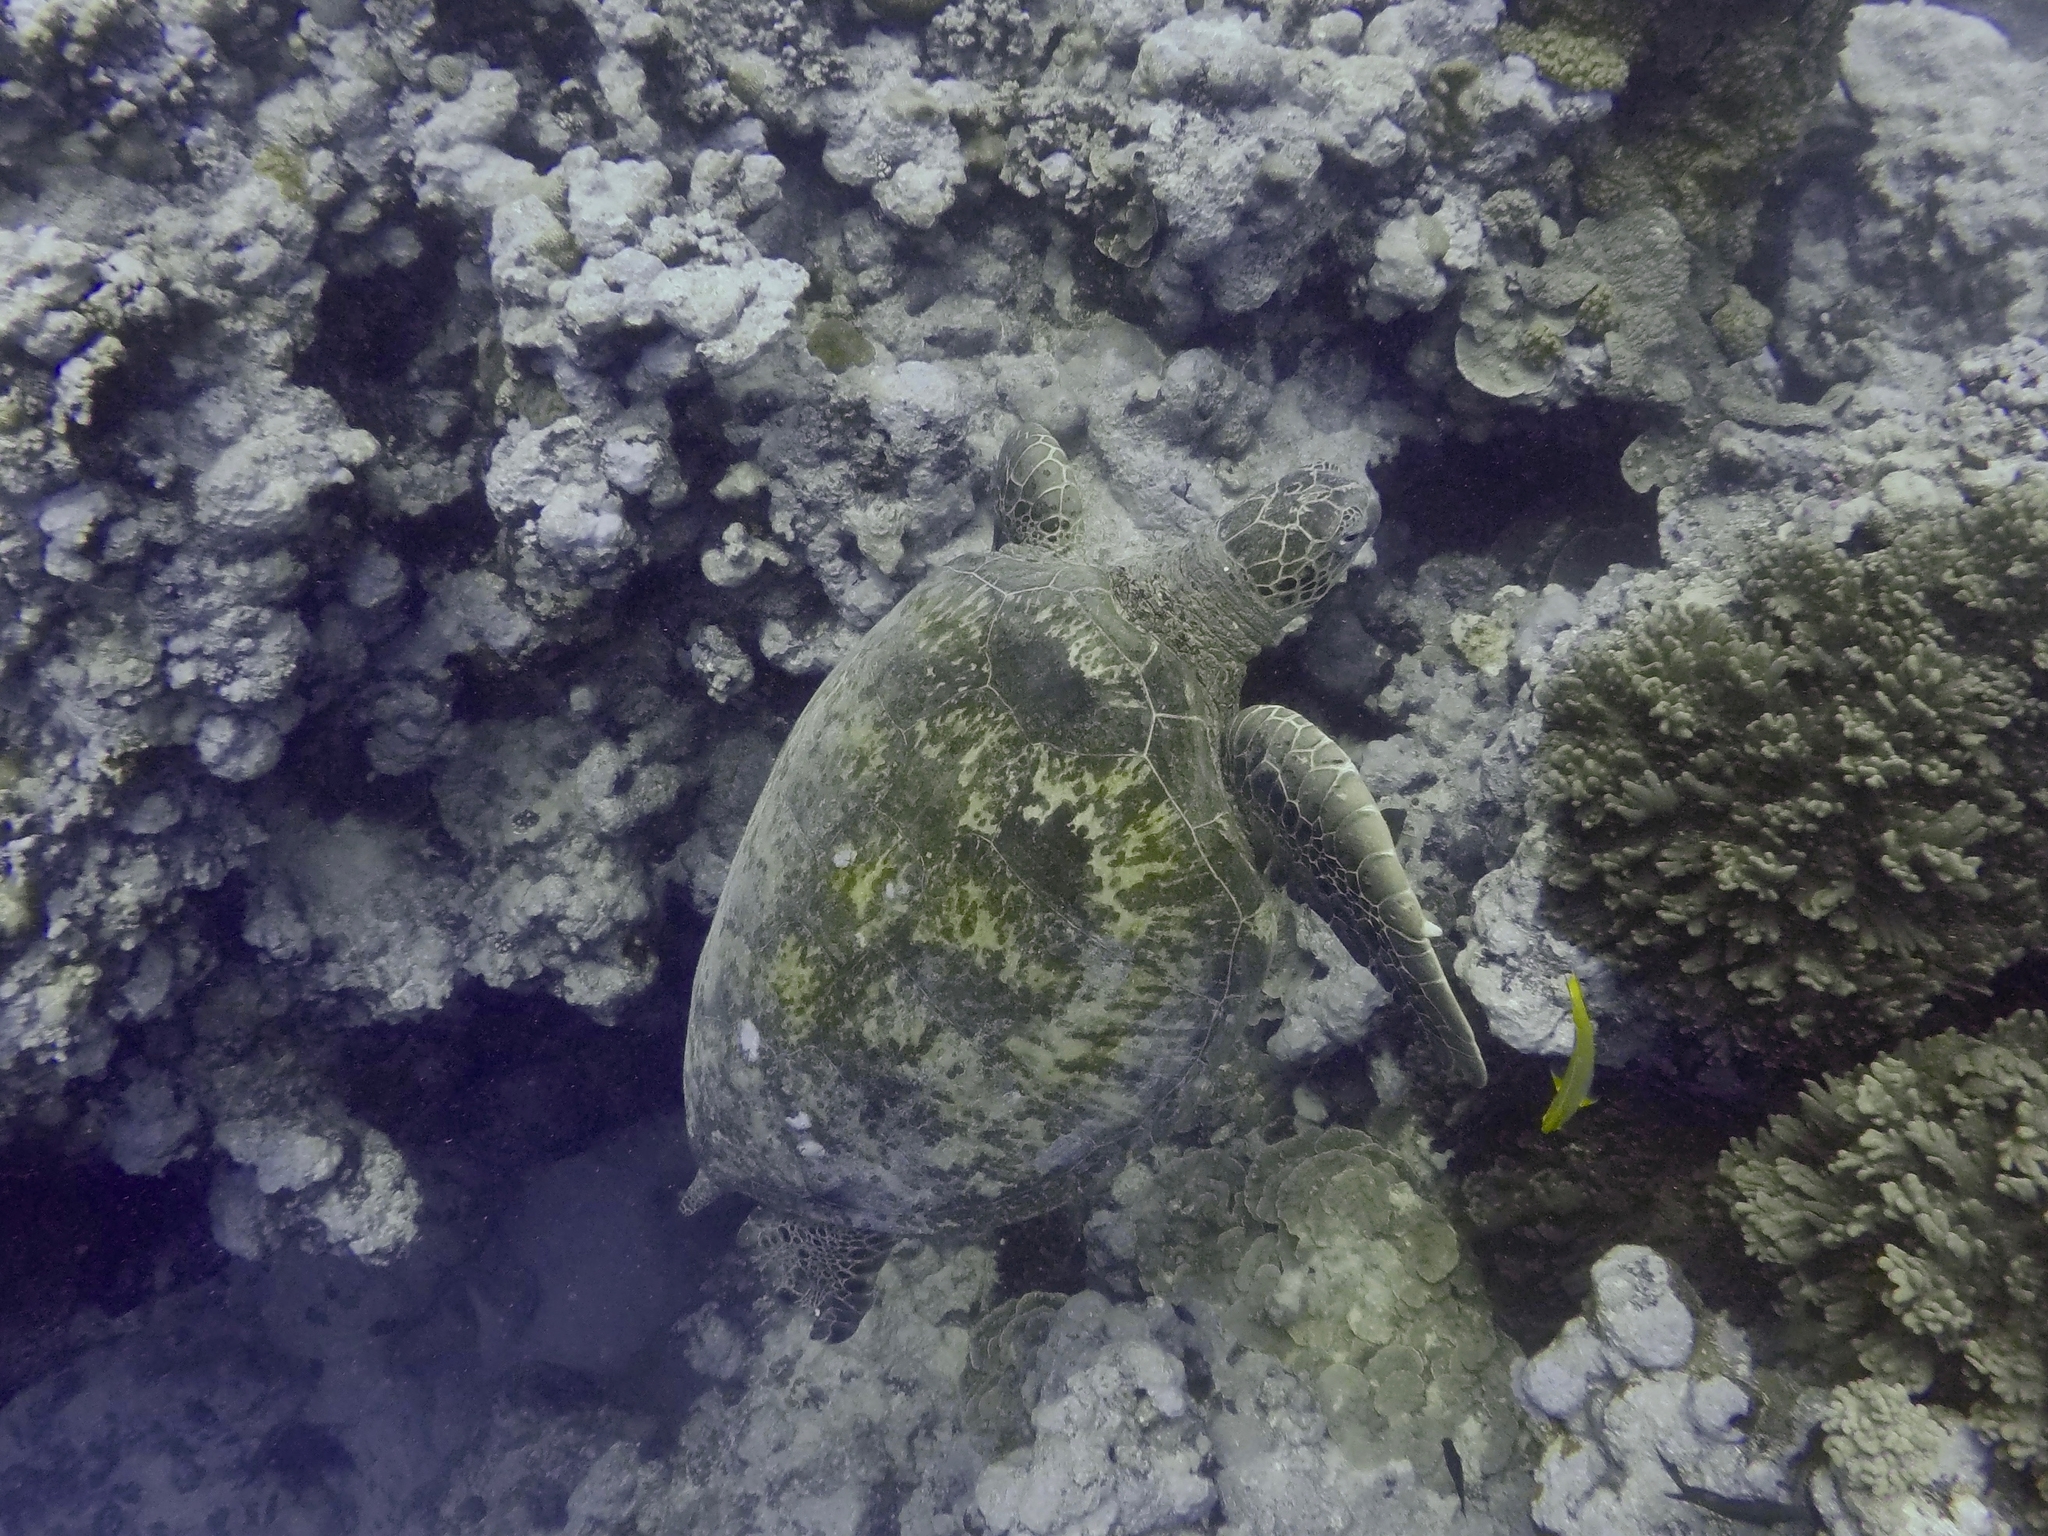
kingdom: Animalia
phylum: Chordata
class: Testudines
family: Cheloniidae
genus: Chelonia
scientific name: Chelonia mydas
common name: Green turtle
